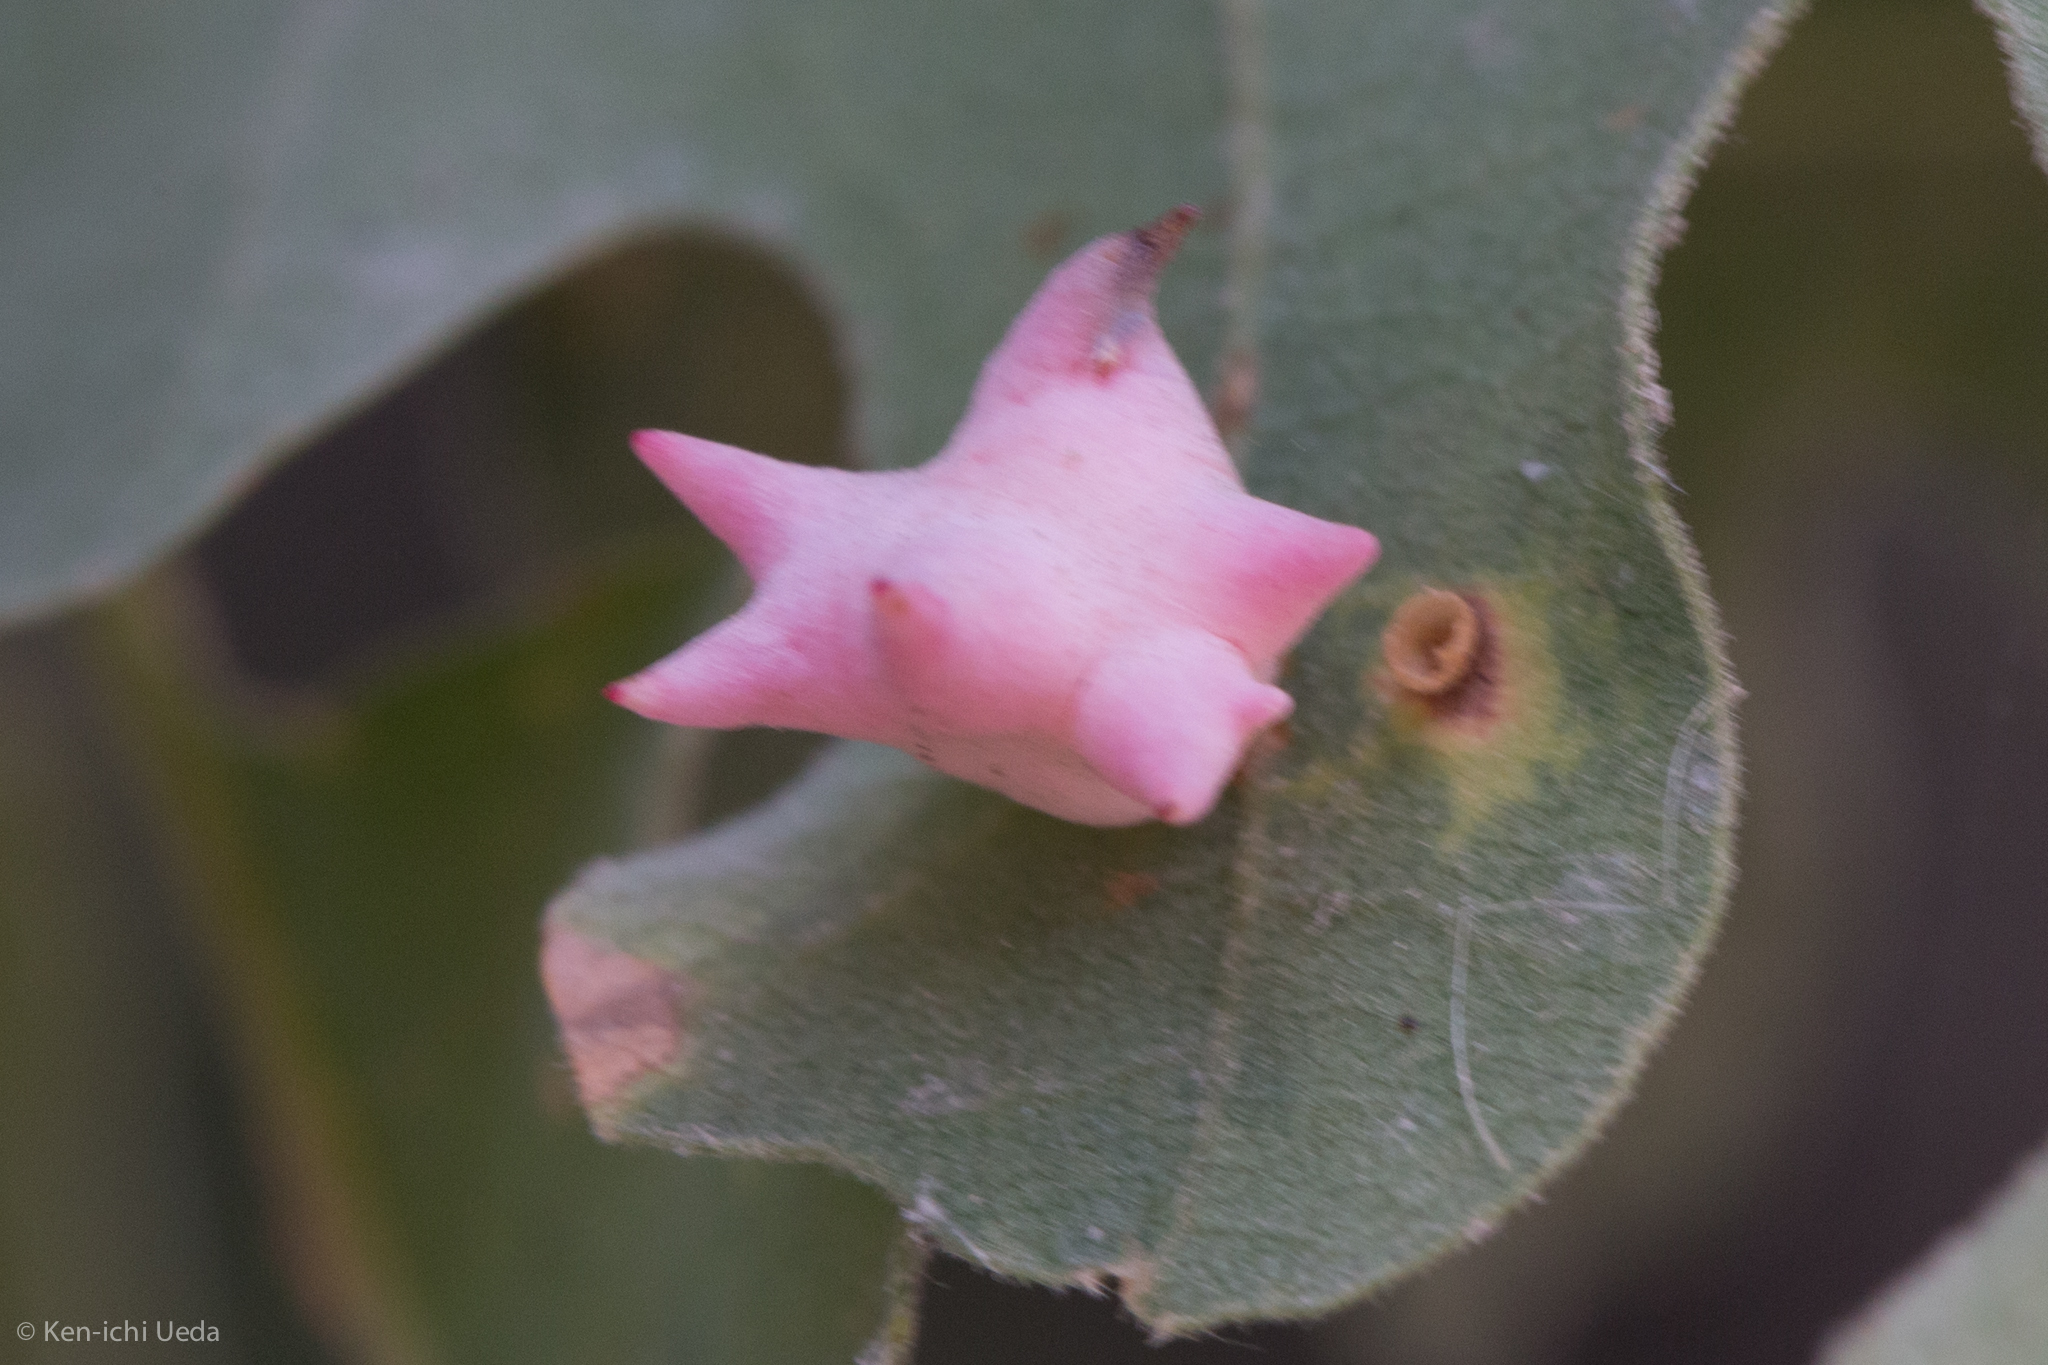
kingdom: Animalia
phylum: Arthropoda
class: Insecta
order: Hymenoptera
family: Cynipidae
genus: Cynips
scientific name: Cynips douglasi
